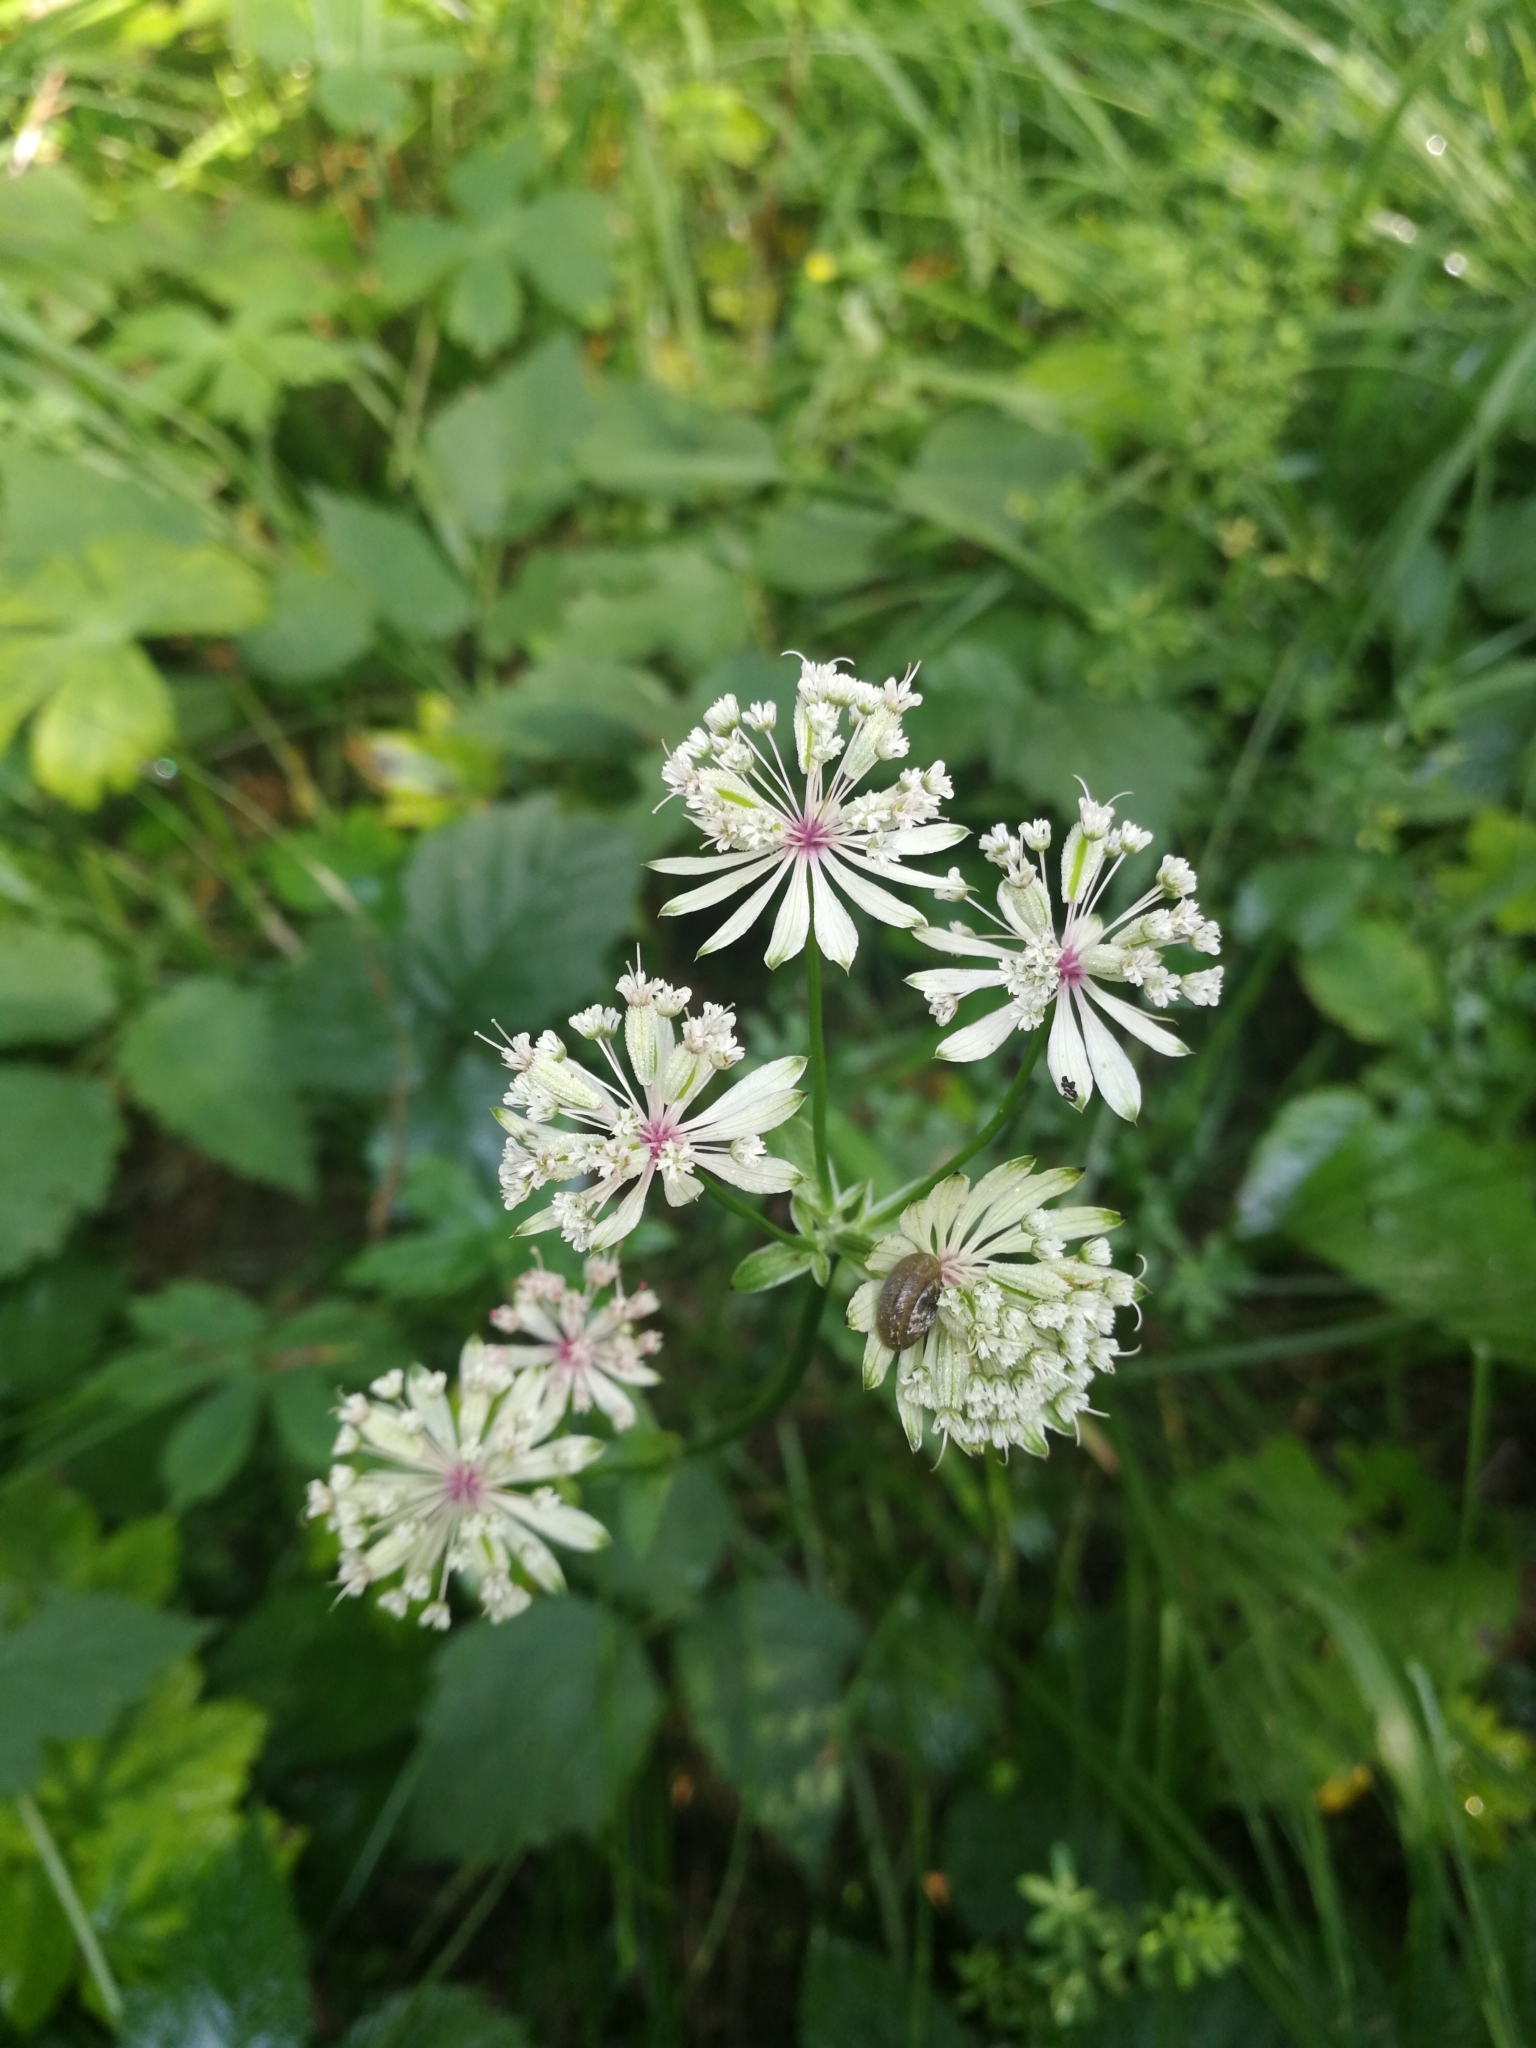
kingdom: Plantae
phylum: Tracheophyta
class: Magnoliopsida
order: Apiales
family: Apiaceae
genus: Astrantia
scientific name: Astrantia major
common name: Greater masterwort
